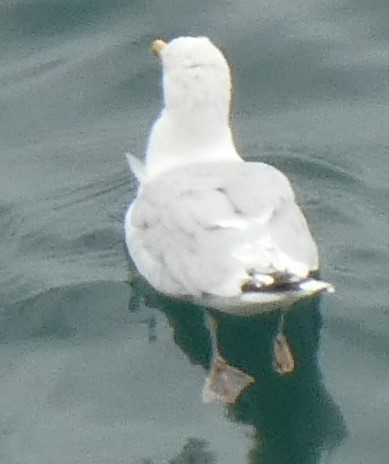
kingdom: Animalia
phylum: Chordata
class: Aves
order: Charadriiformes
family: Laridae
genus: Larus
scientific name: Larus argentatus
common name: Herring gull
